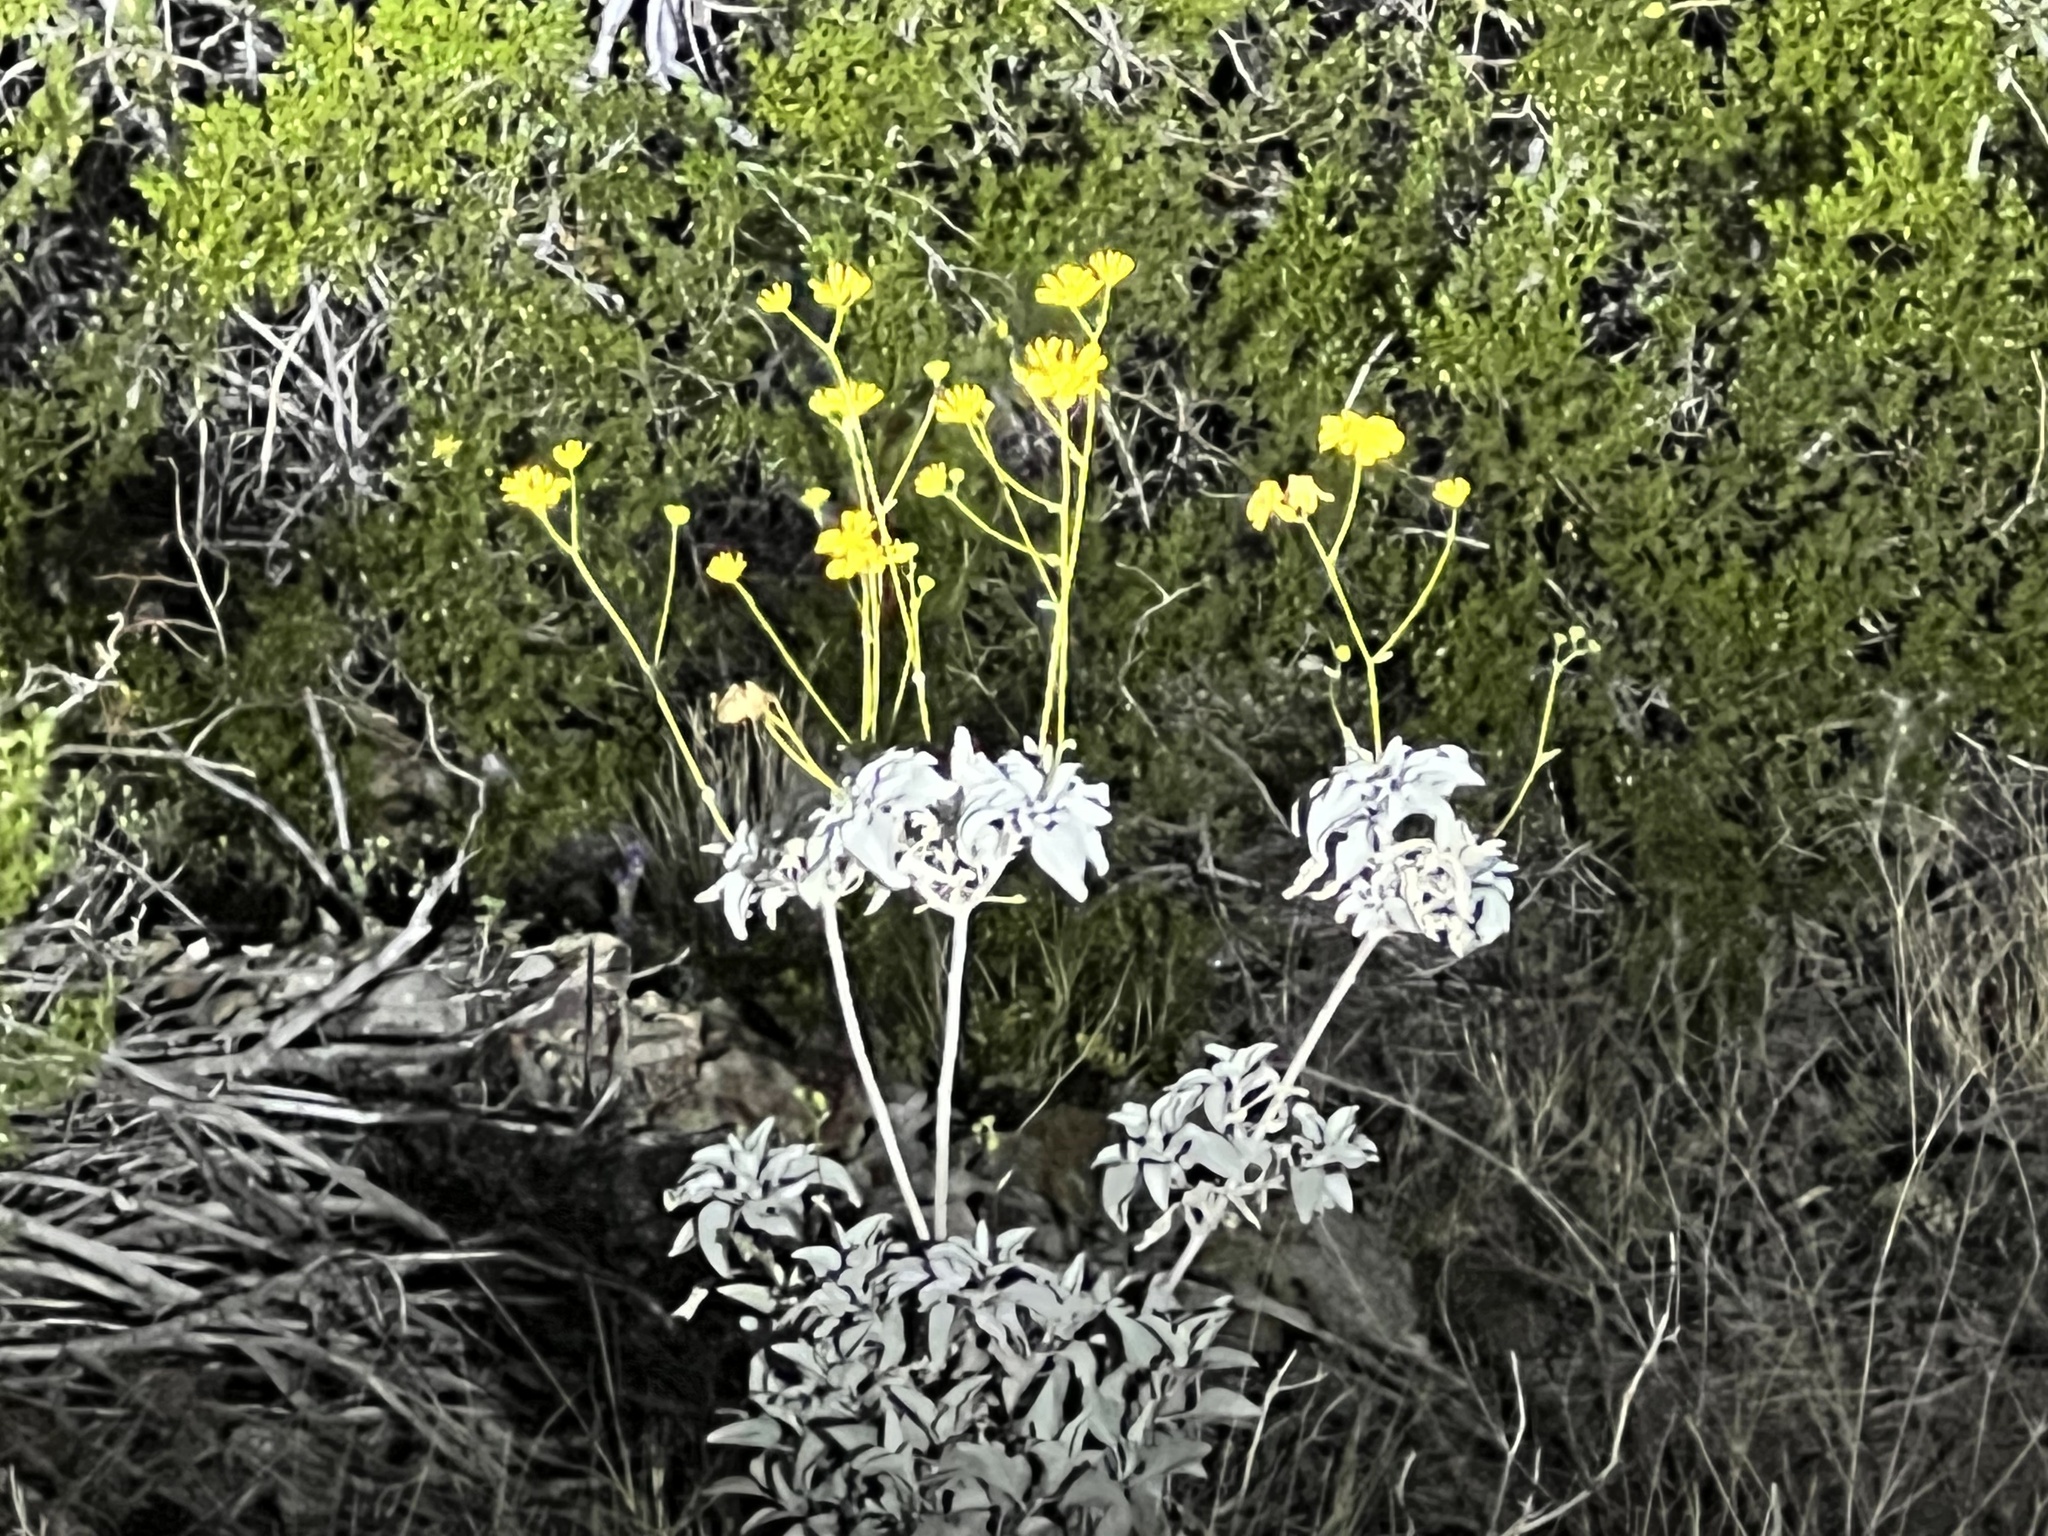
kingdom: Plantae
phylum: Tracheophyta
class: Magnoliopsida
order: Asterales
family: Asteraceae
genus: Encelia
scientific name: Encelia farinosa
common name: Brittlebush
